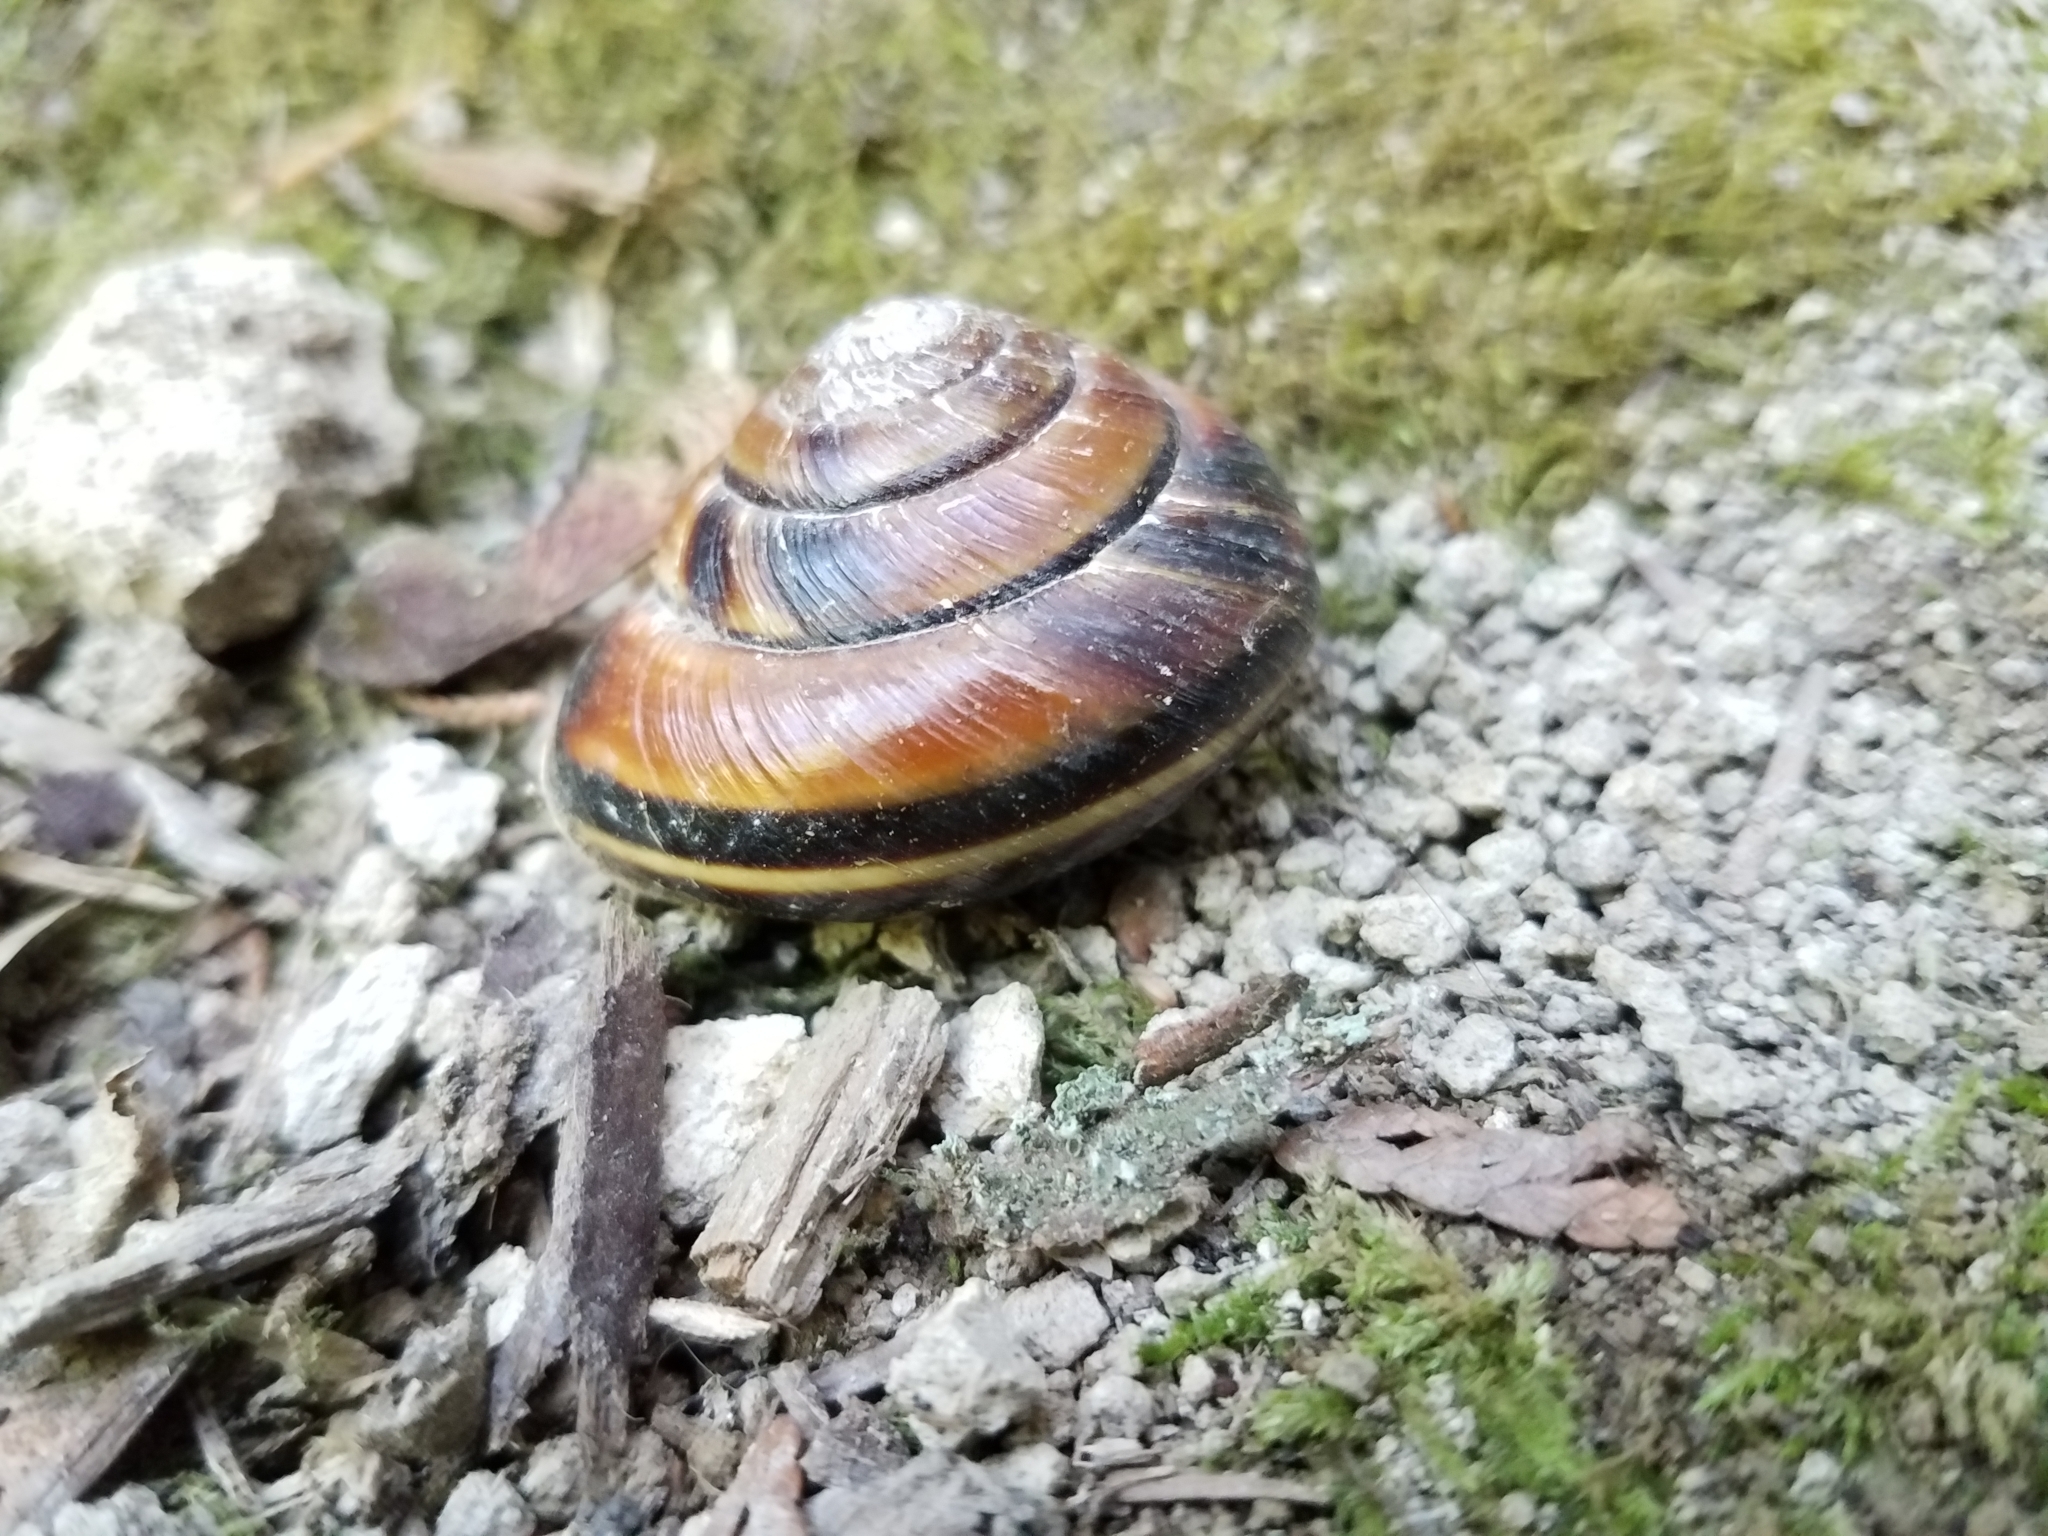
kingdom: Animalia
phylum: Mollusca
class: Gastropoda
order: Stylommatophora
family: Xanthonychidae
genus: Monadenia
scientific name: Monadenia fidelis
